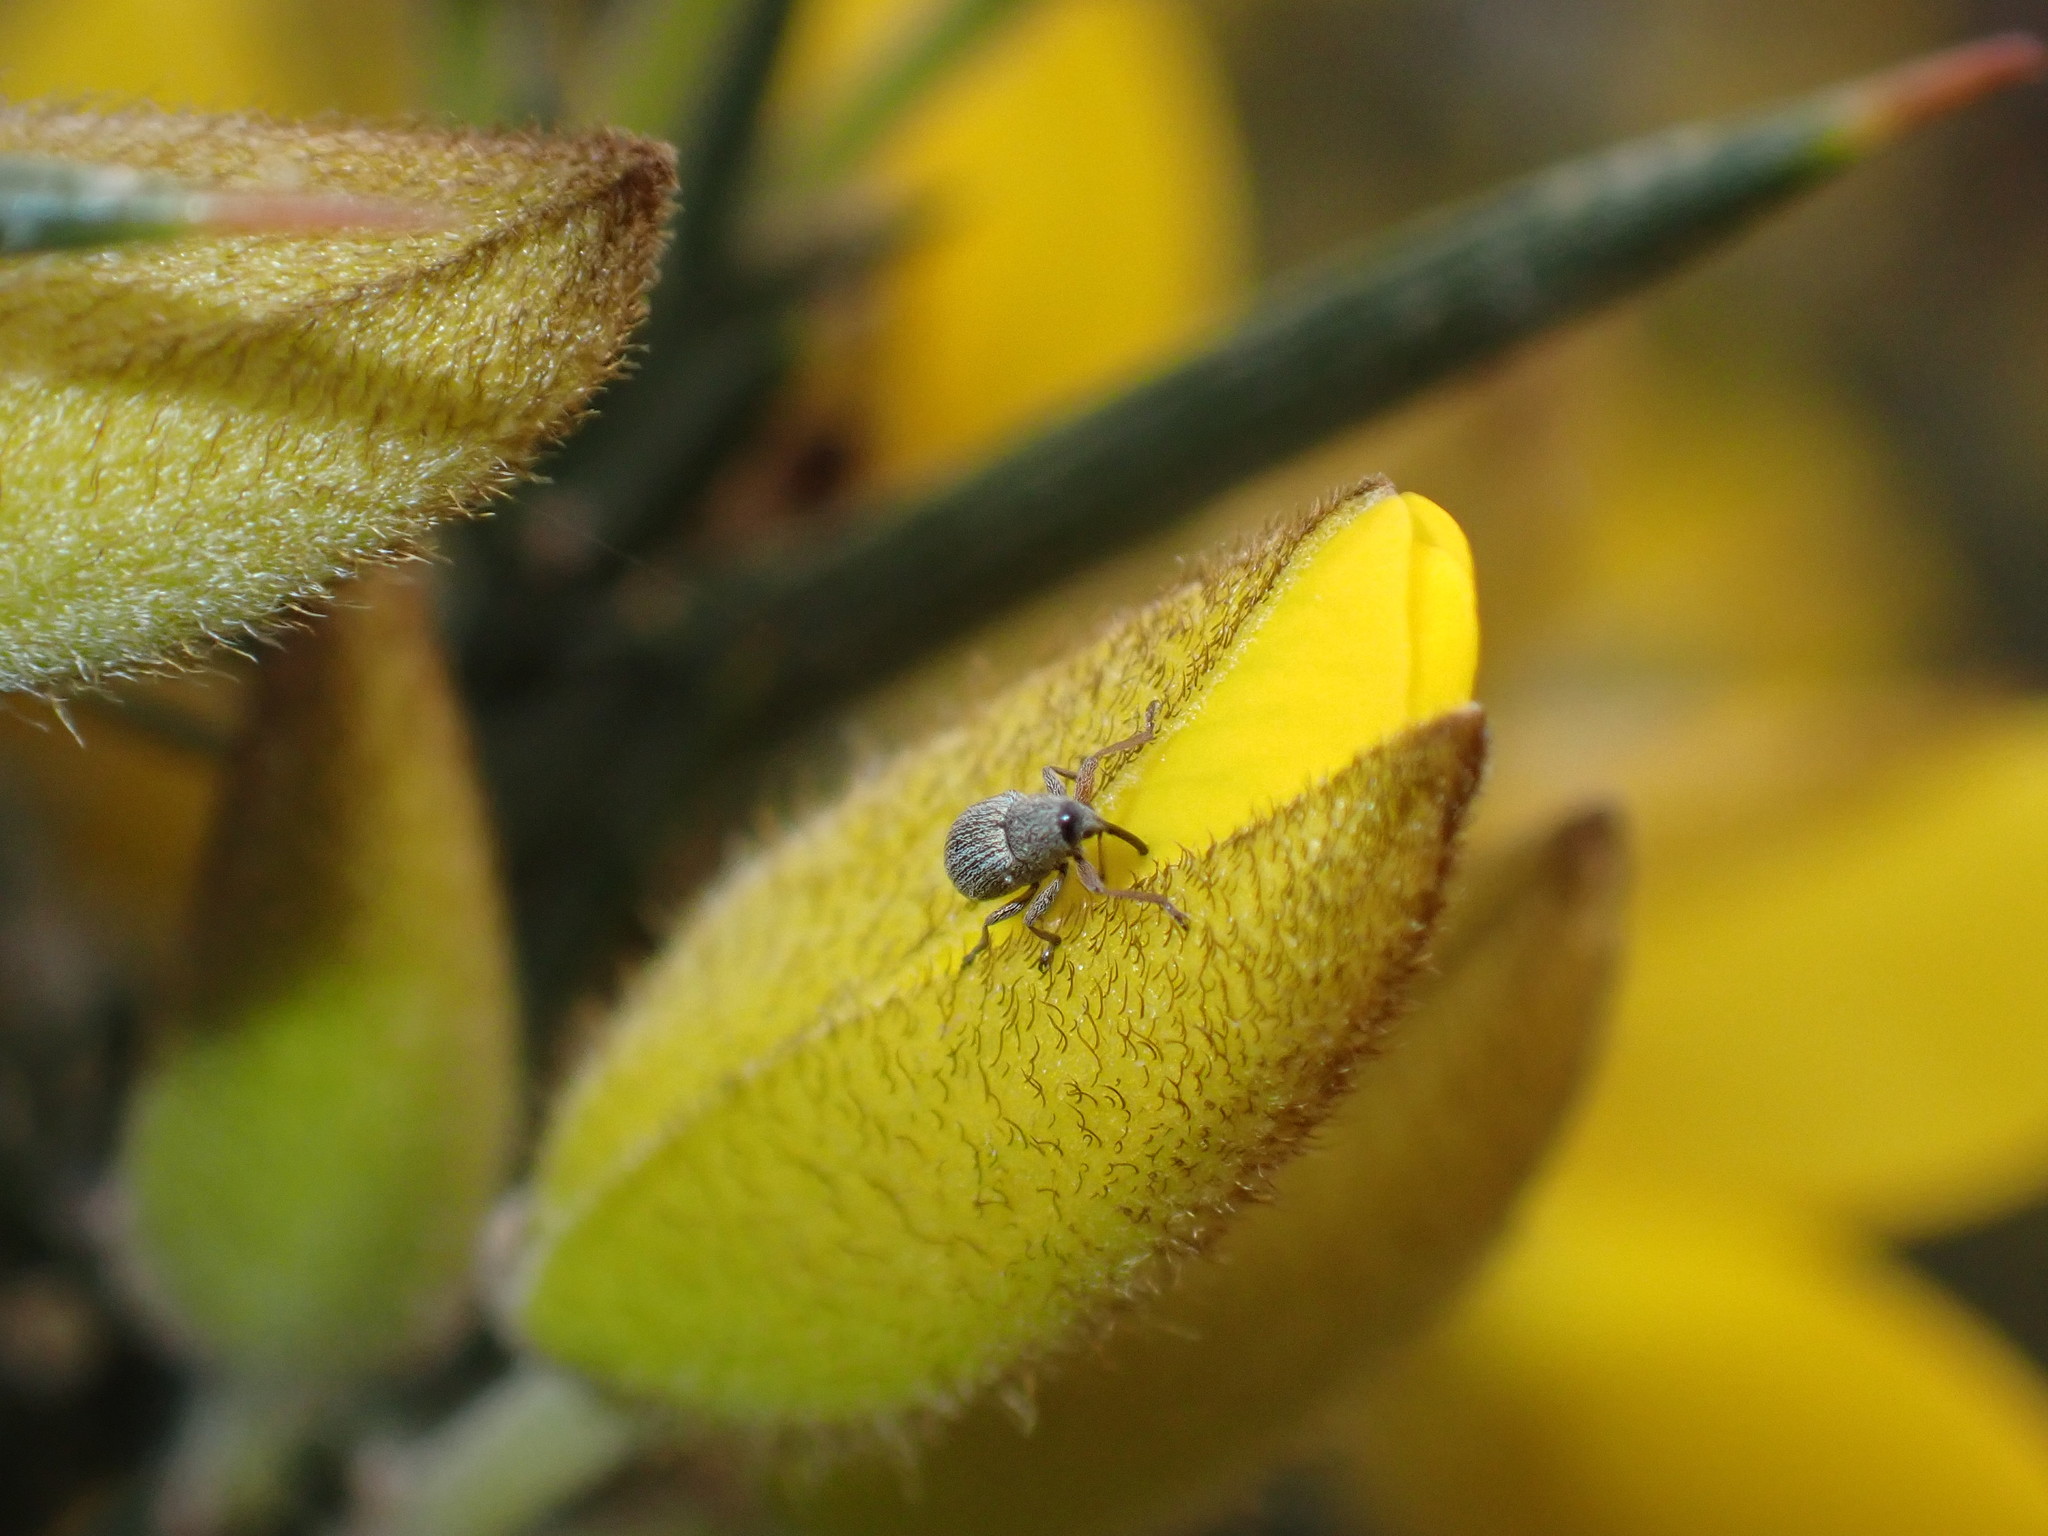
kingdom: Animalia
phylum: Arthropoda
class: Insecta
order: Coleoptera
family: Brentidae
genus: Exapion
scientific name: Exapion ulicis
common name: Gorse seed weevil
